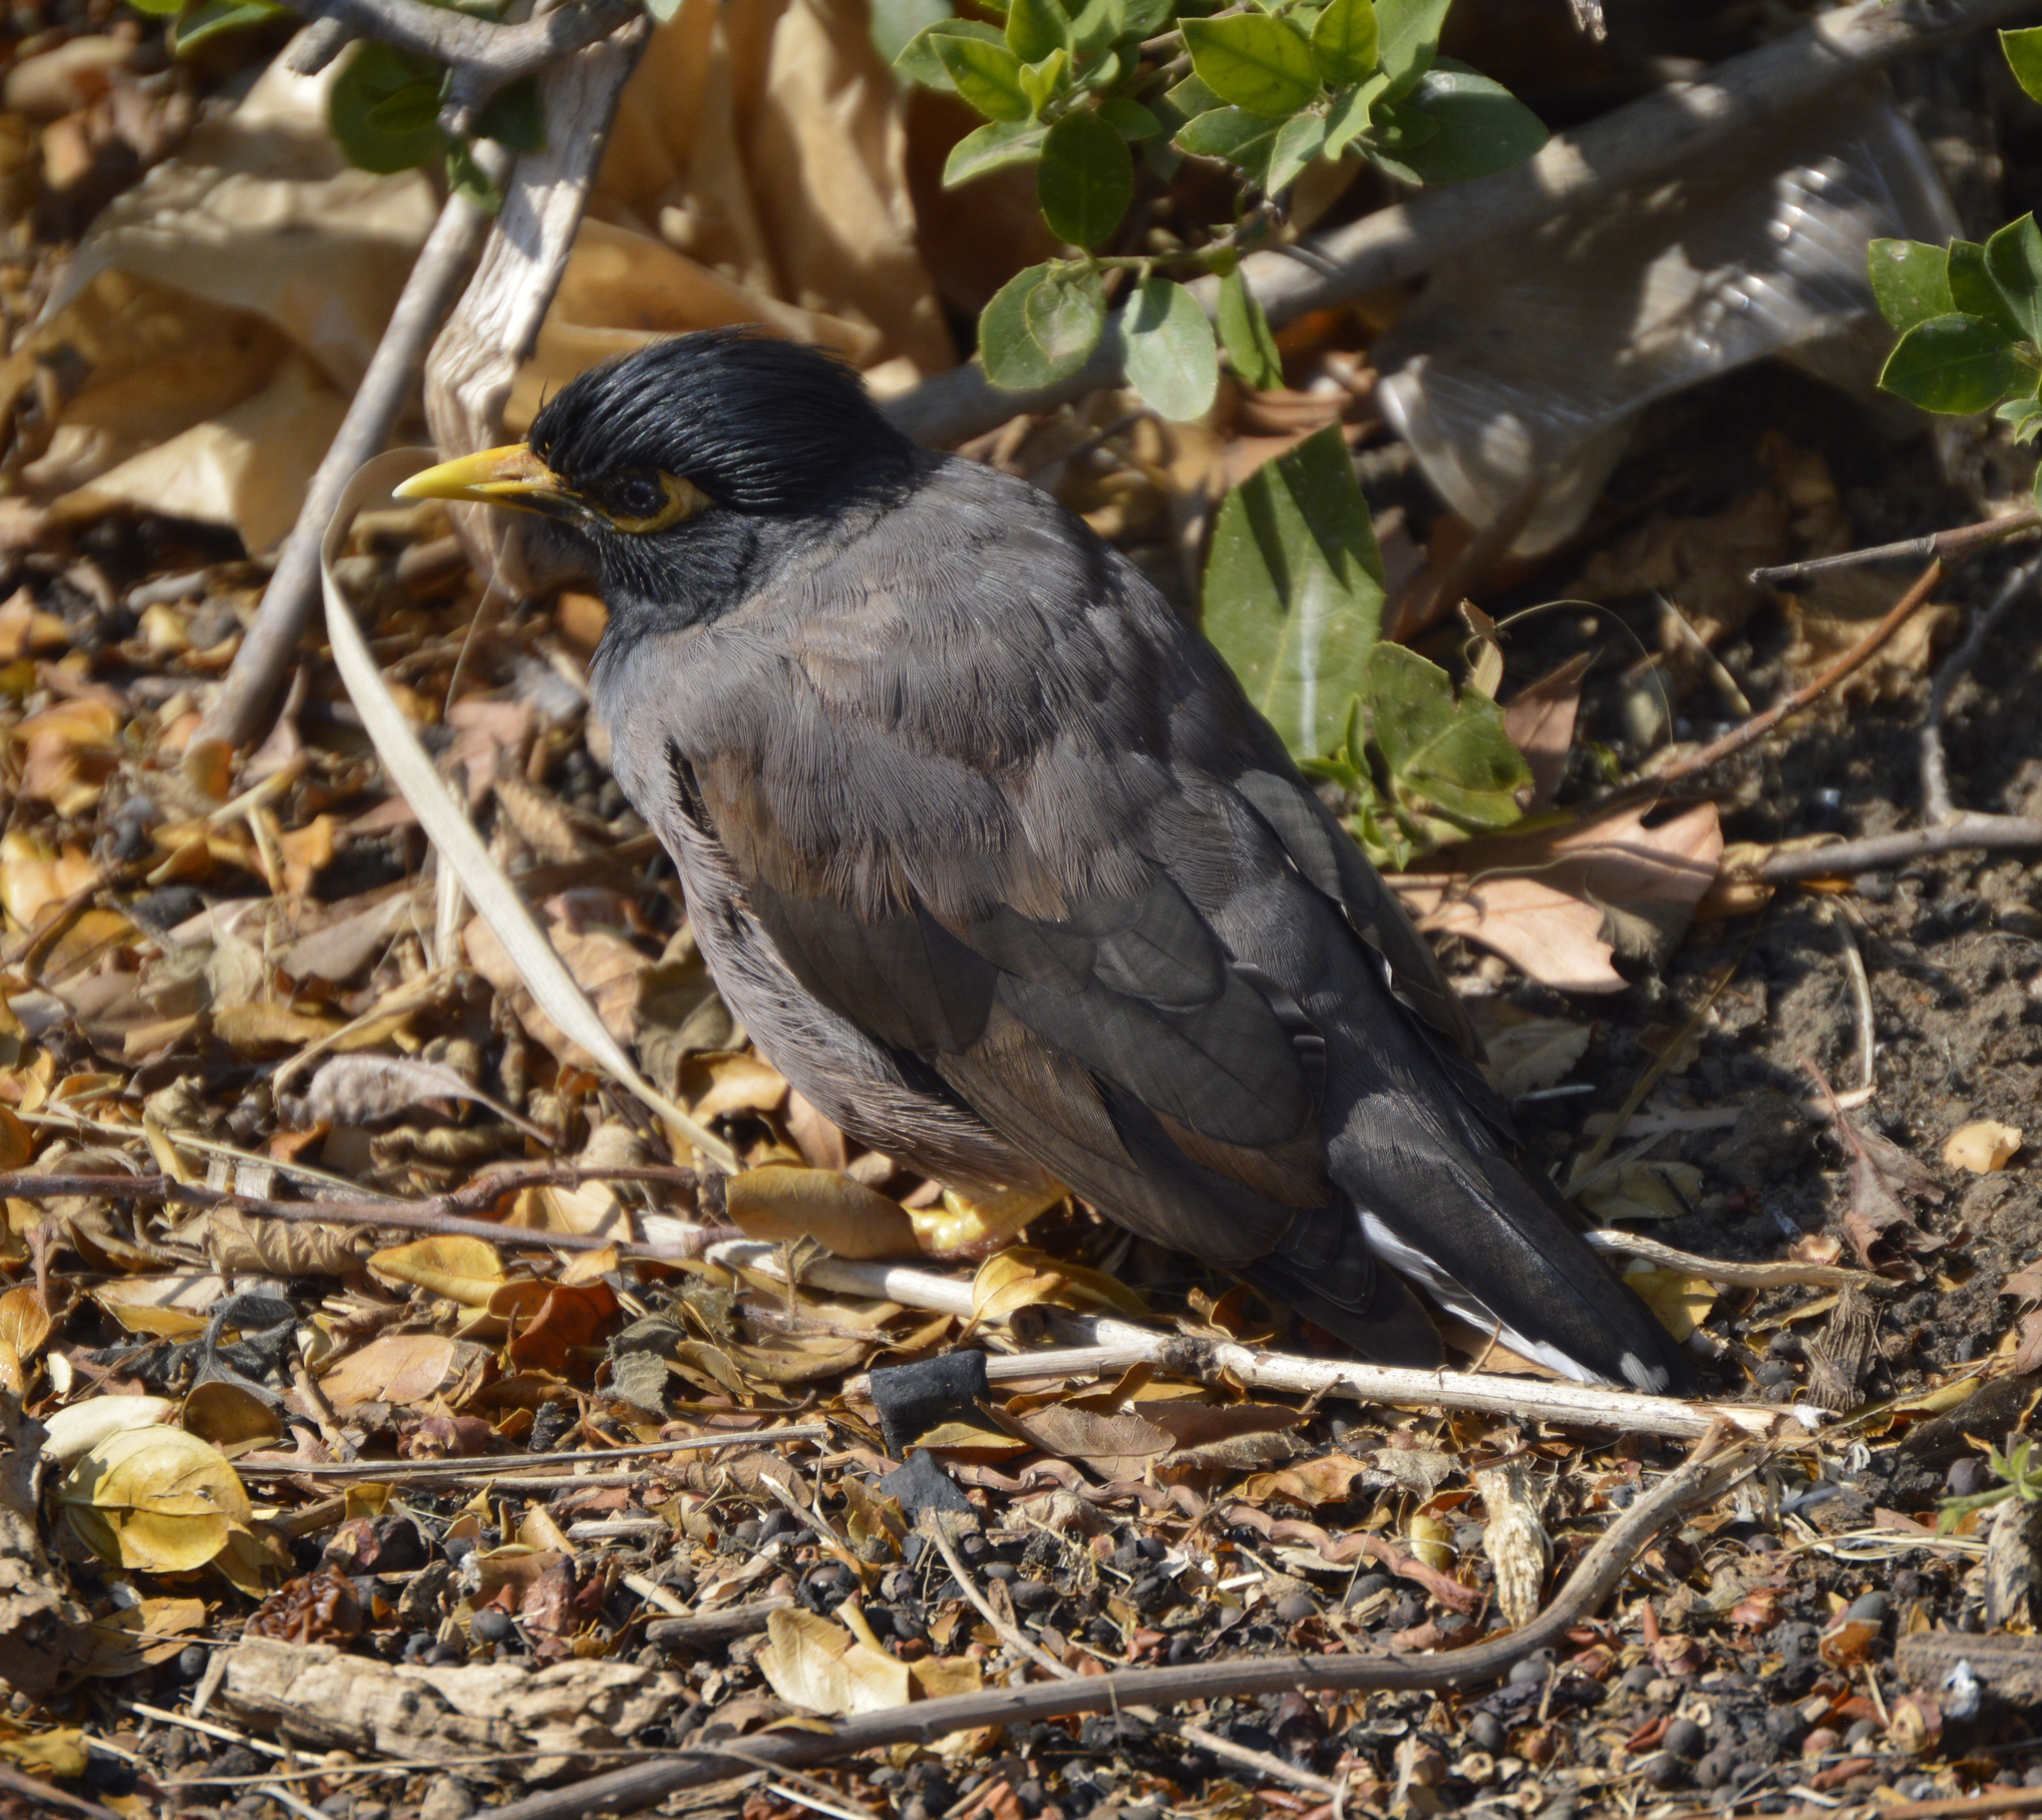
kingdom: Animalia
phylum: Chordata
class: Aves
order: Passeriformes
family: Sturnidae
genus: Acridotheres
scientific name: Acridotheres tristis
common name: Common myna
